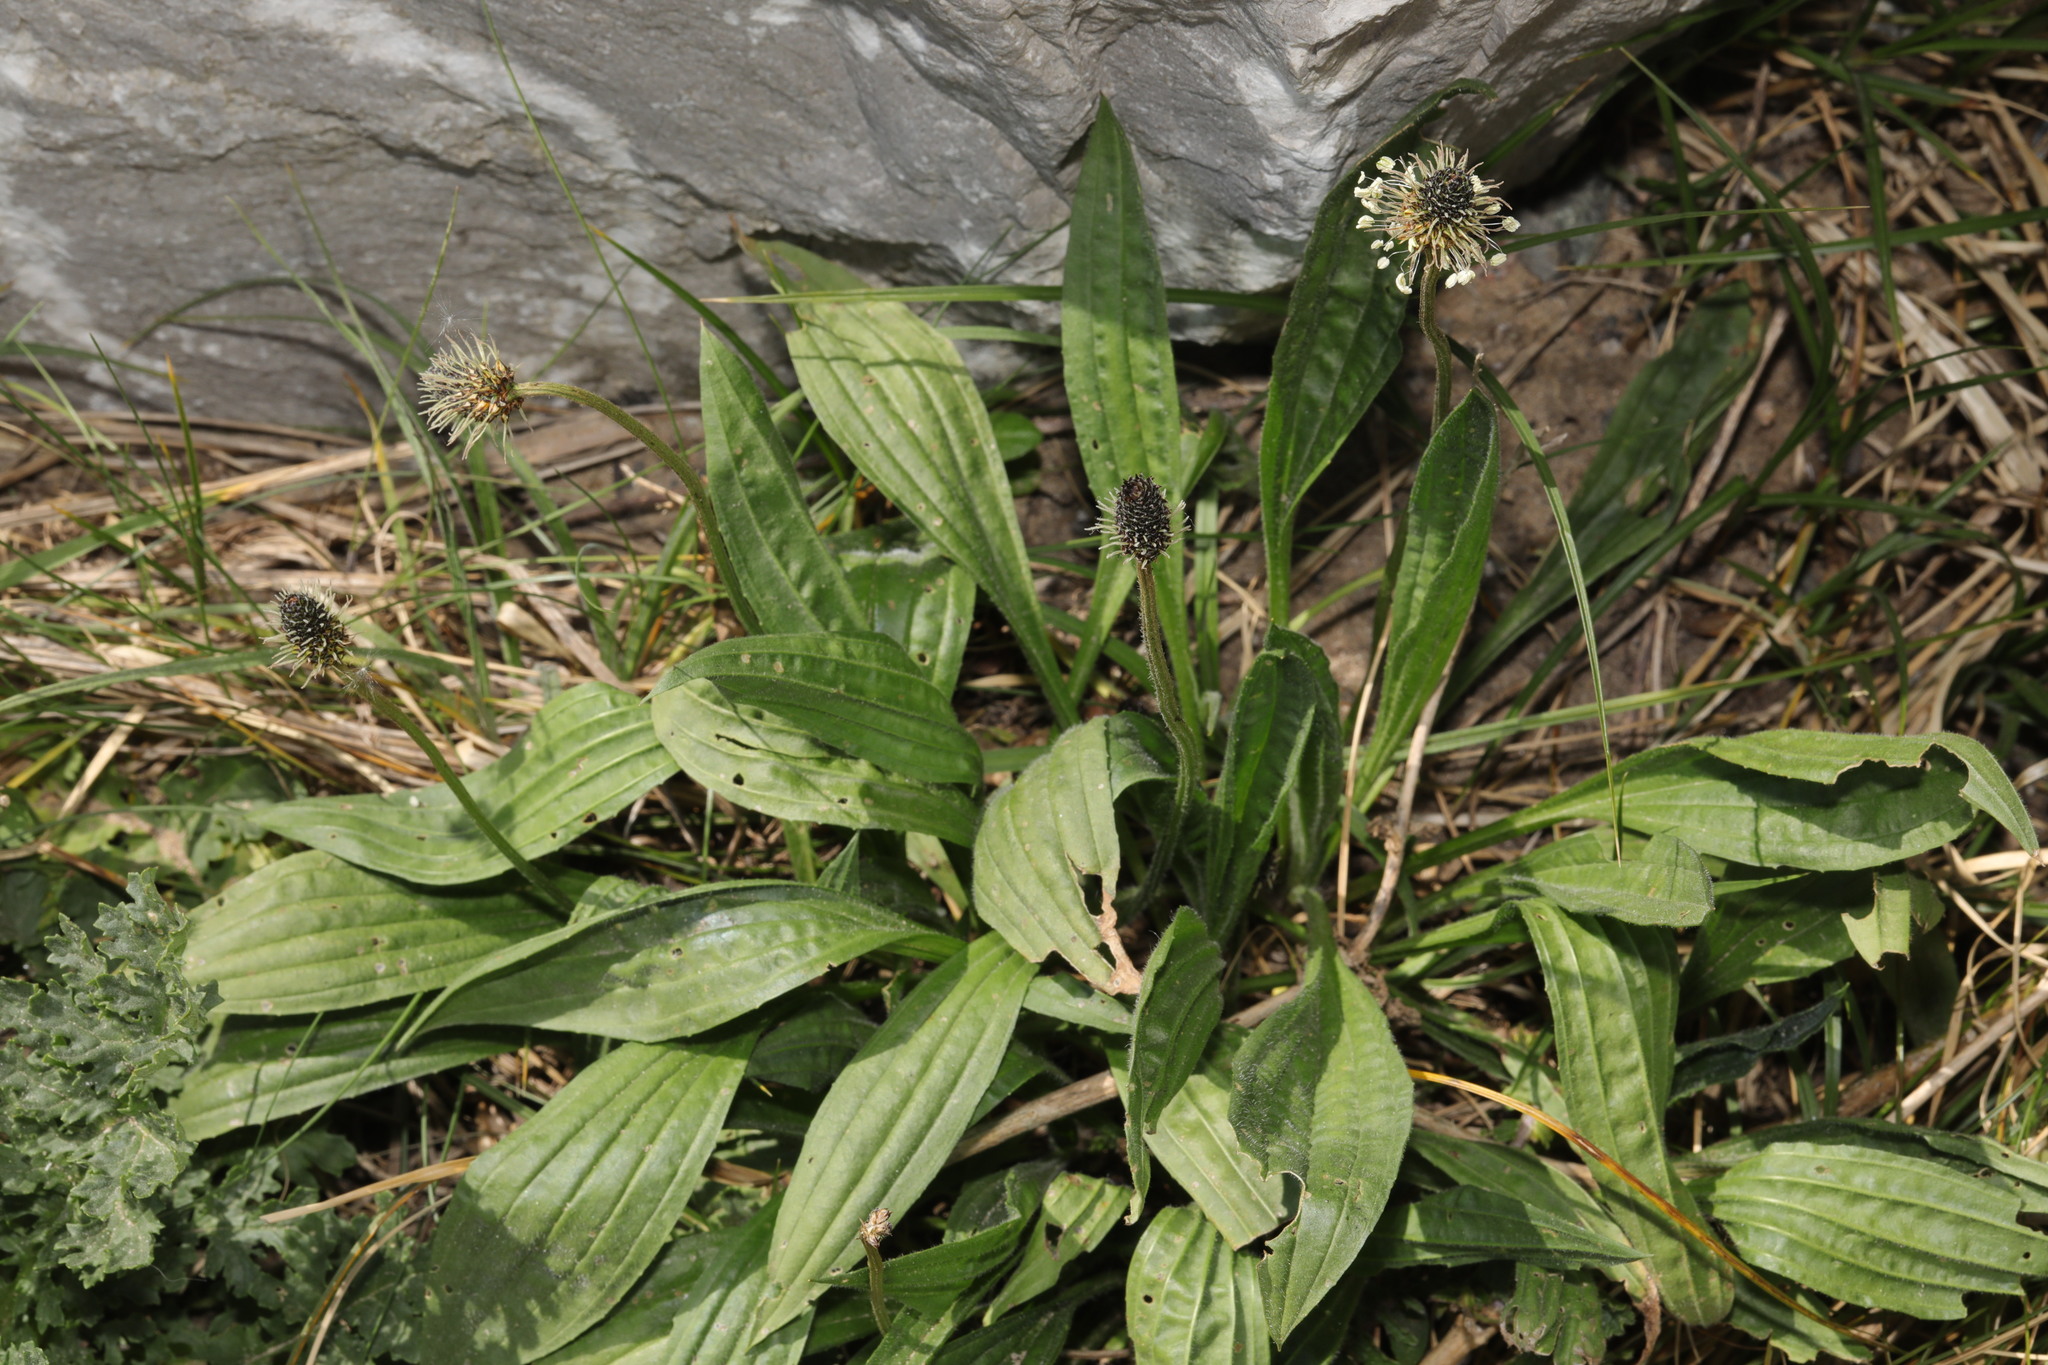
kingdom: Plantae
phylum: Tracheophyta
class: Magnoliopsida
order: Lamiales
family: Plantaginaceae
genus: Plantago
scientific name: Plantago lanceolata
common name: Ribwort plantain
